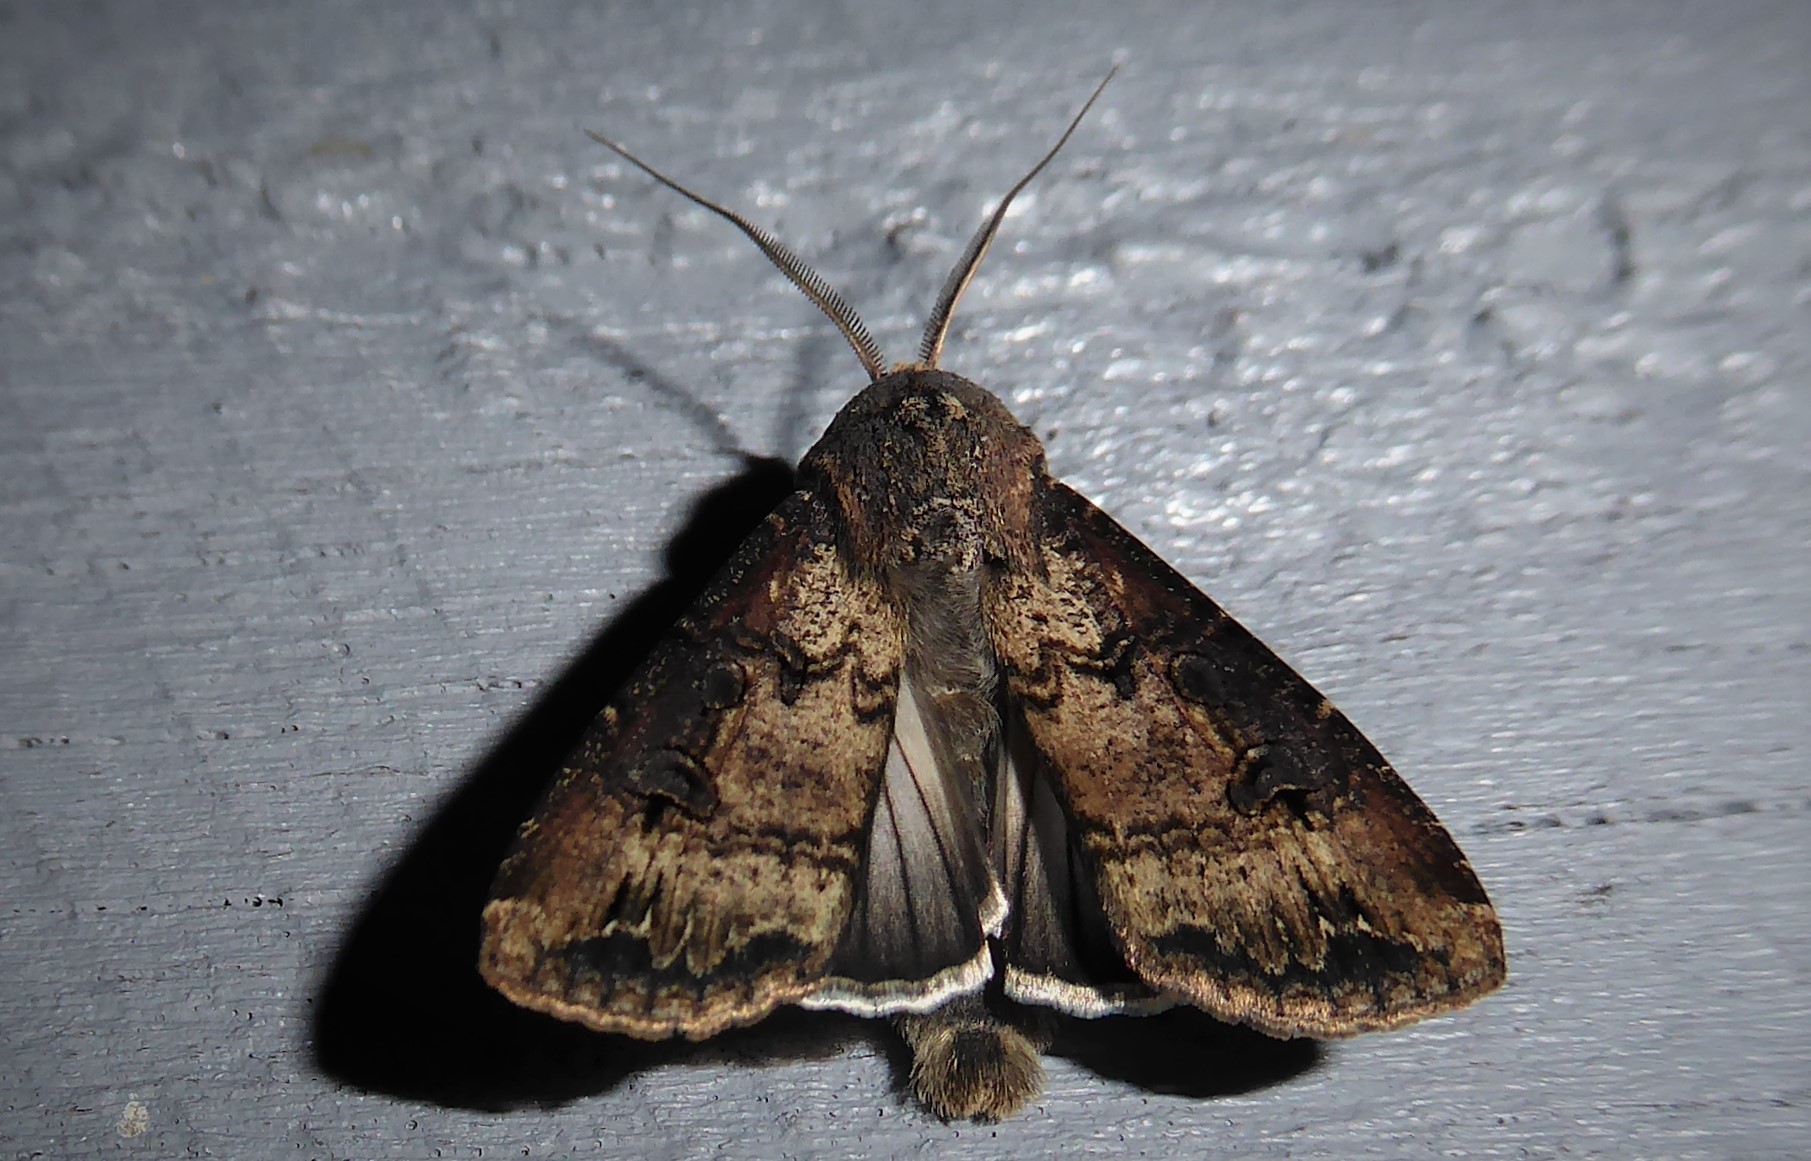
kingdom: Animalia
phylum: Arthropoda
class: Insecta
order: Lepidoptera
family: Noctuidae
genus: Agrotis
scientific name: Agrotis ipsilon
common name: Dark sword-grass
